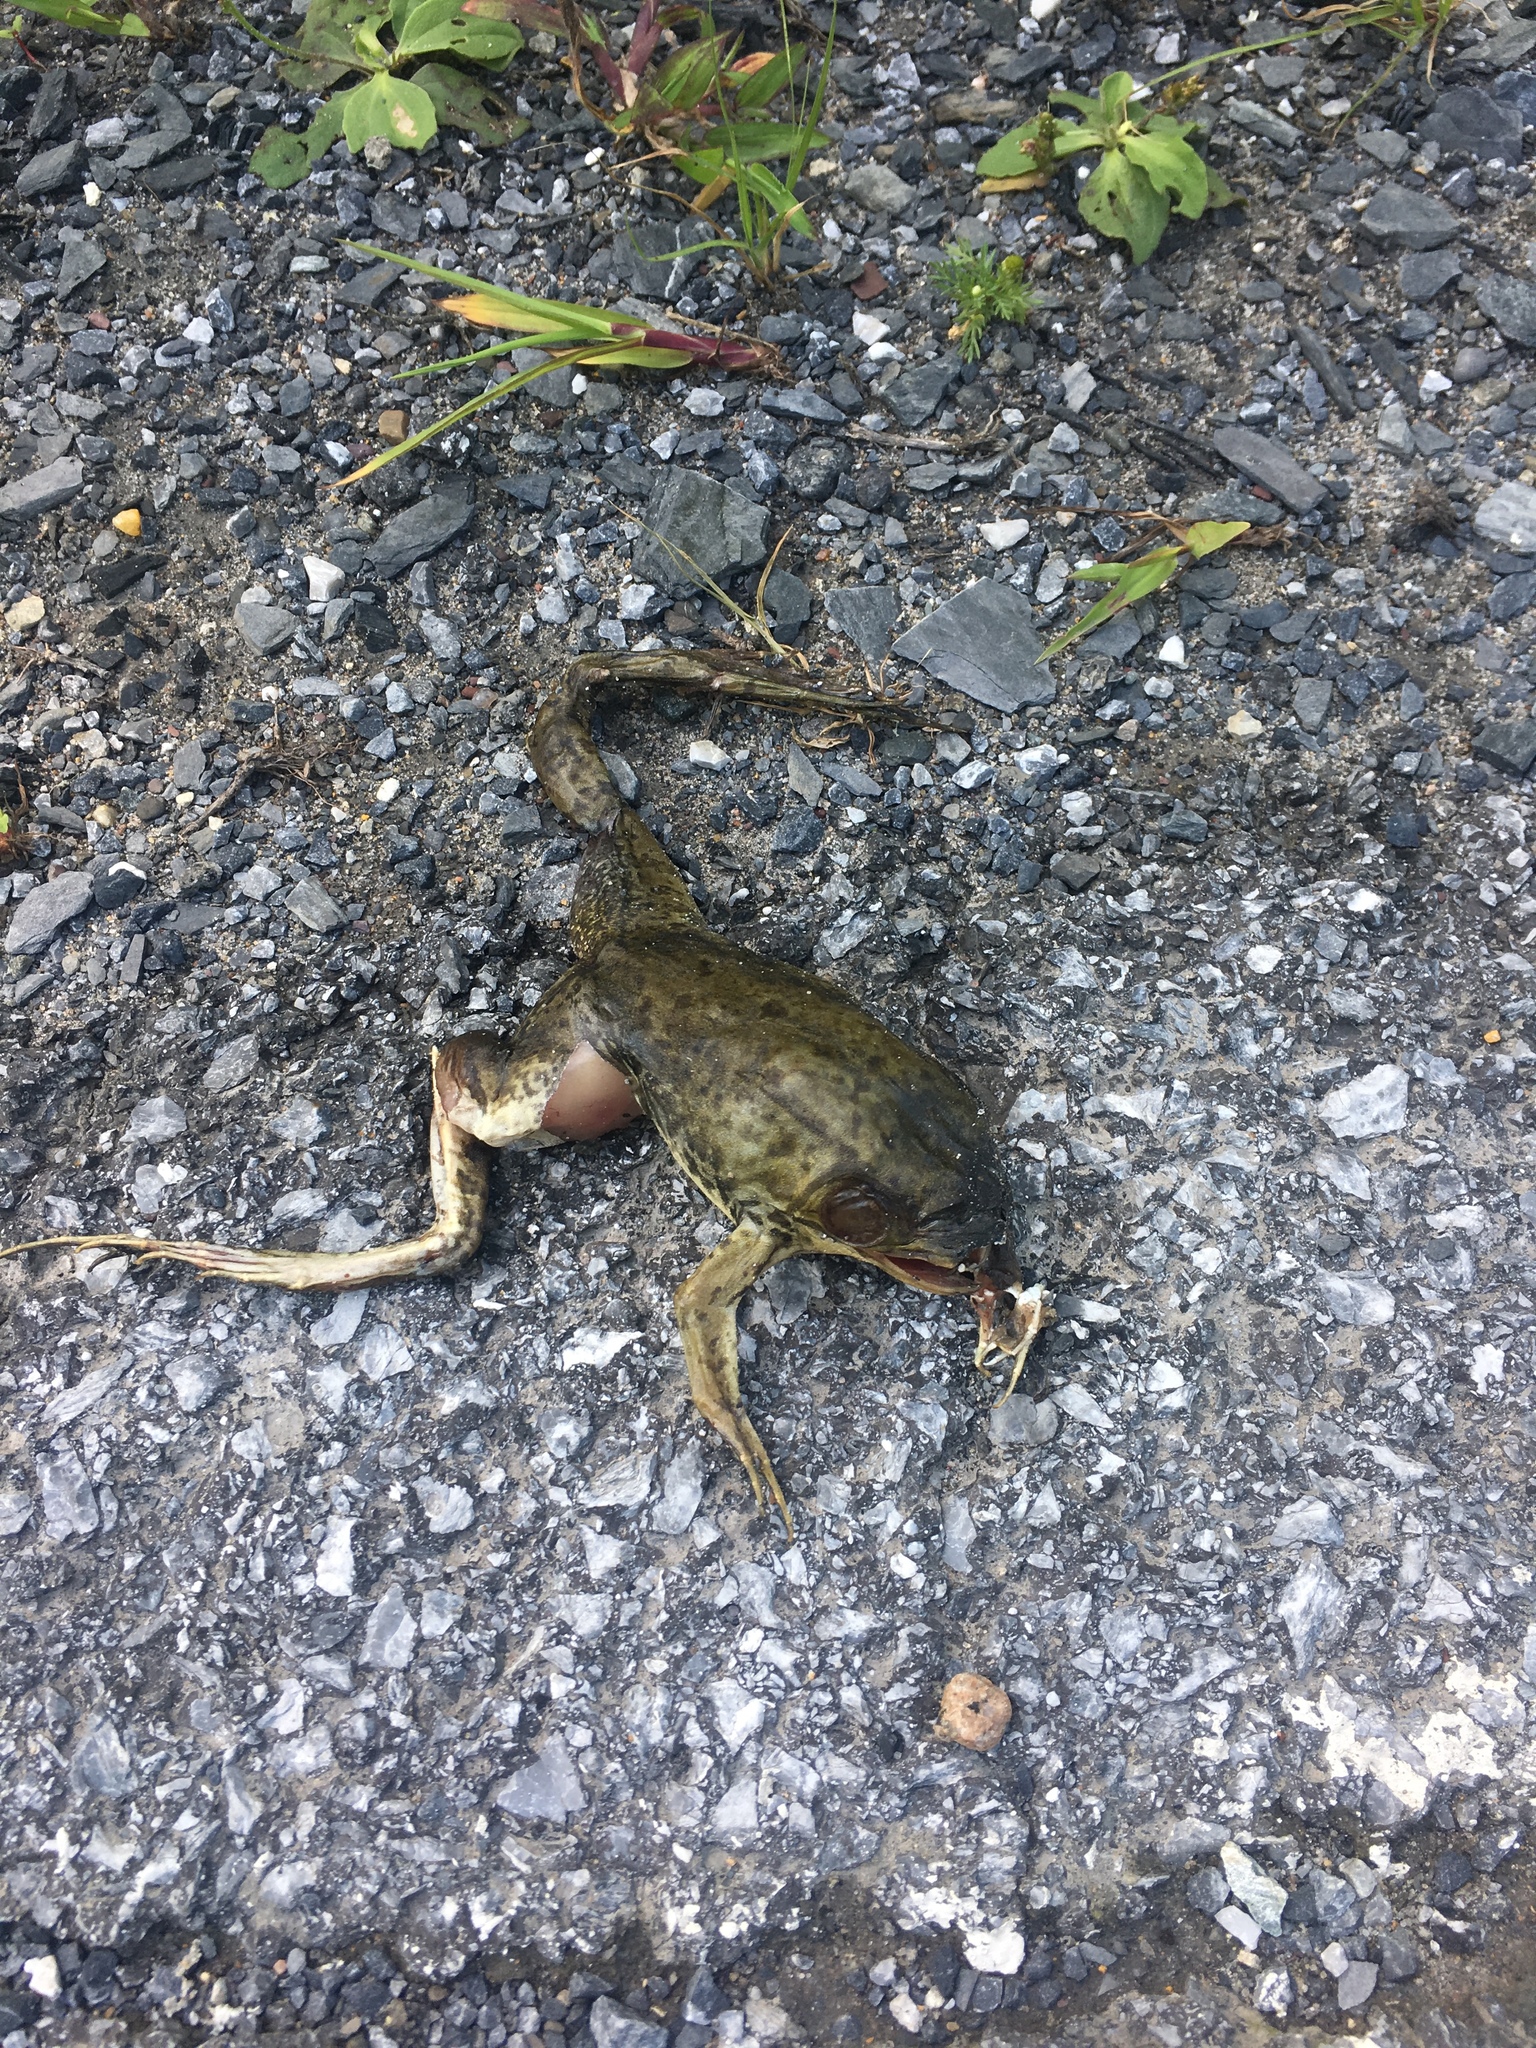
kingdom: Animalia
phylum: Chordata
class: Amphibia
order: Anura
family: Ranidae
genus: Lithobates
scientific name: Lithobates clamitans
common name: Green frog
